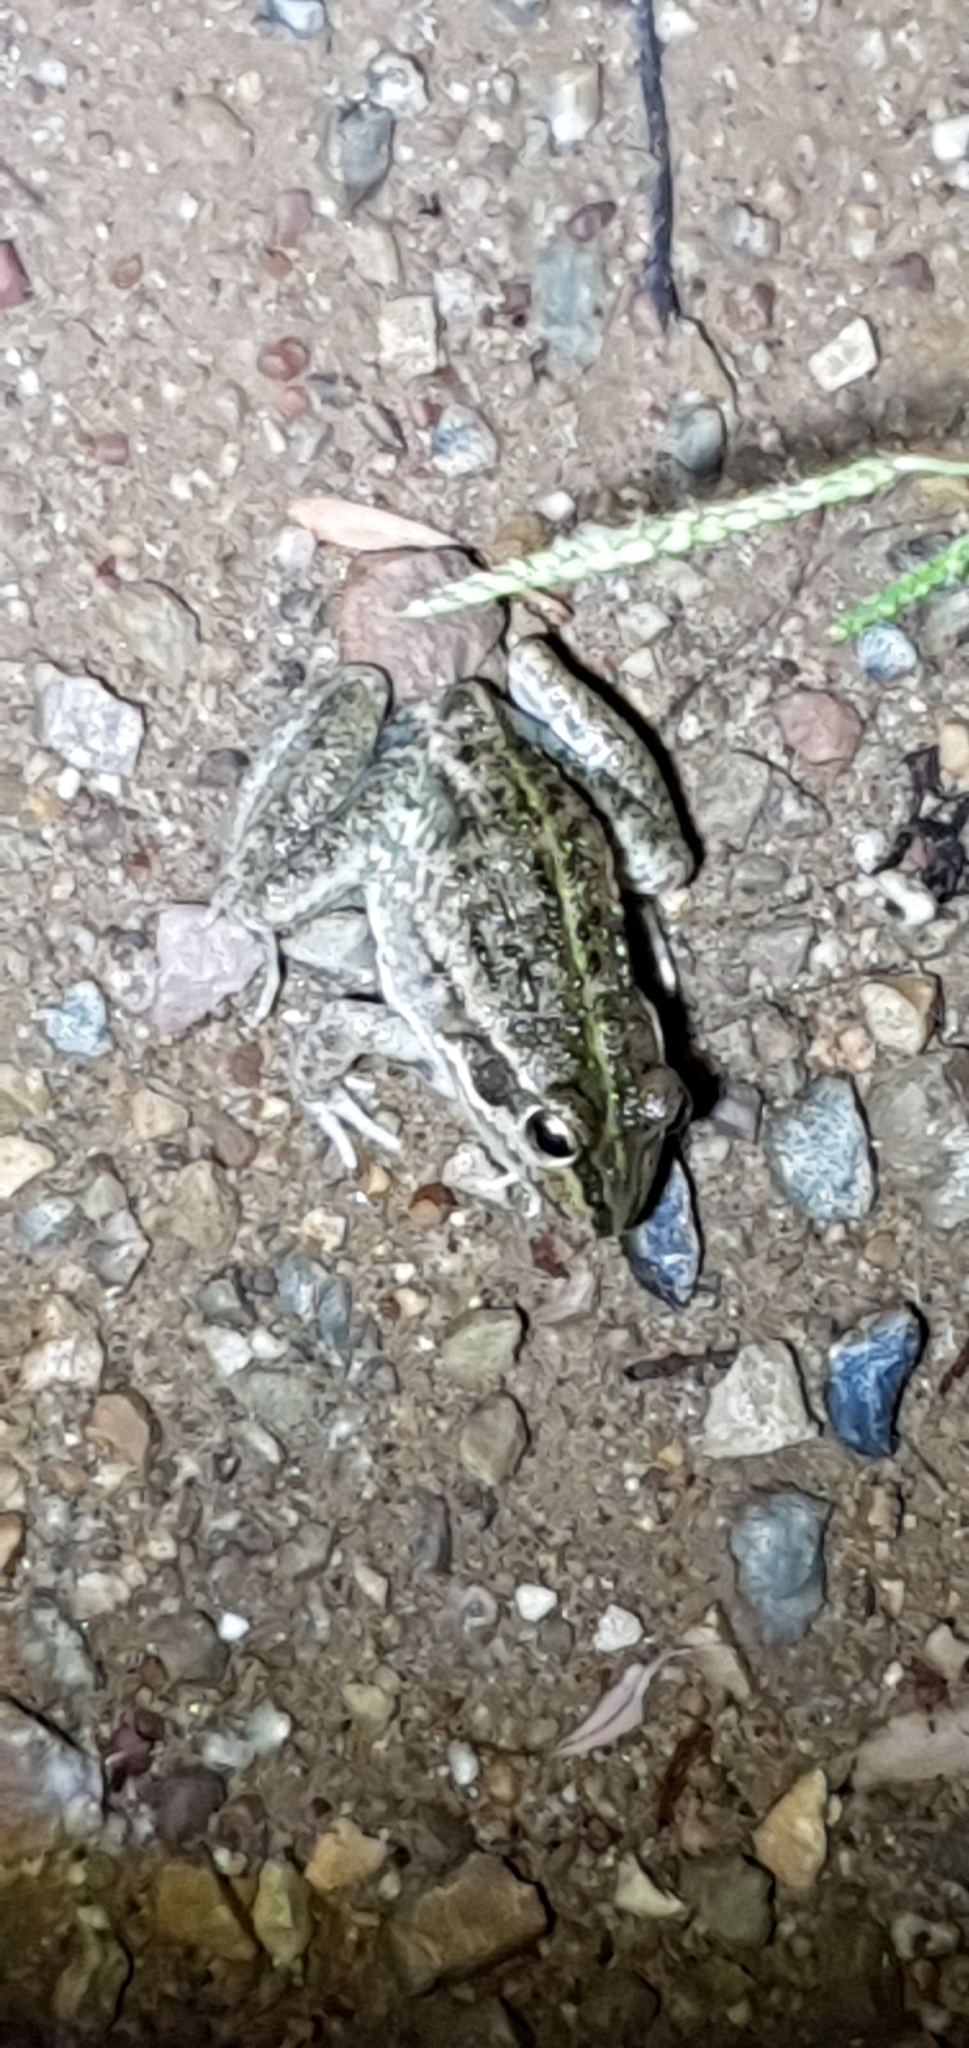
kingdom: Animalia
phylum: Chordata
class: Amphibia
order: Anura
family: Pelodryadidae
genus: Ranoidea
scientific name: Ranoidea alboguttata
